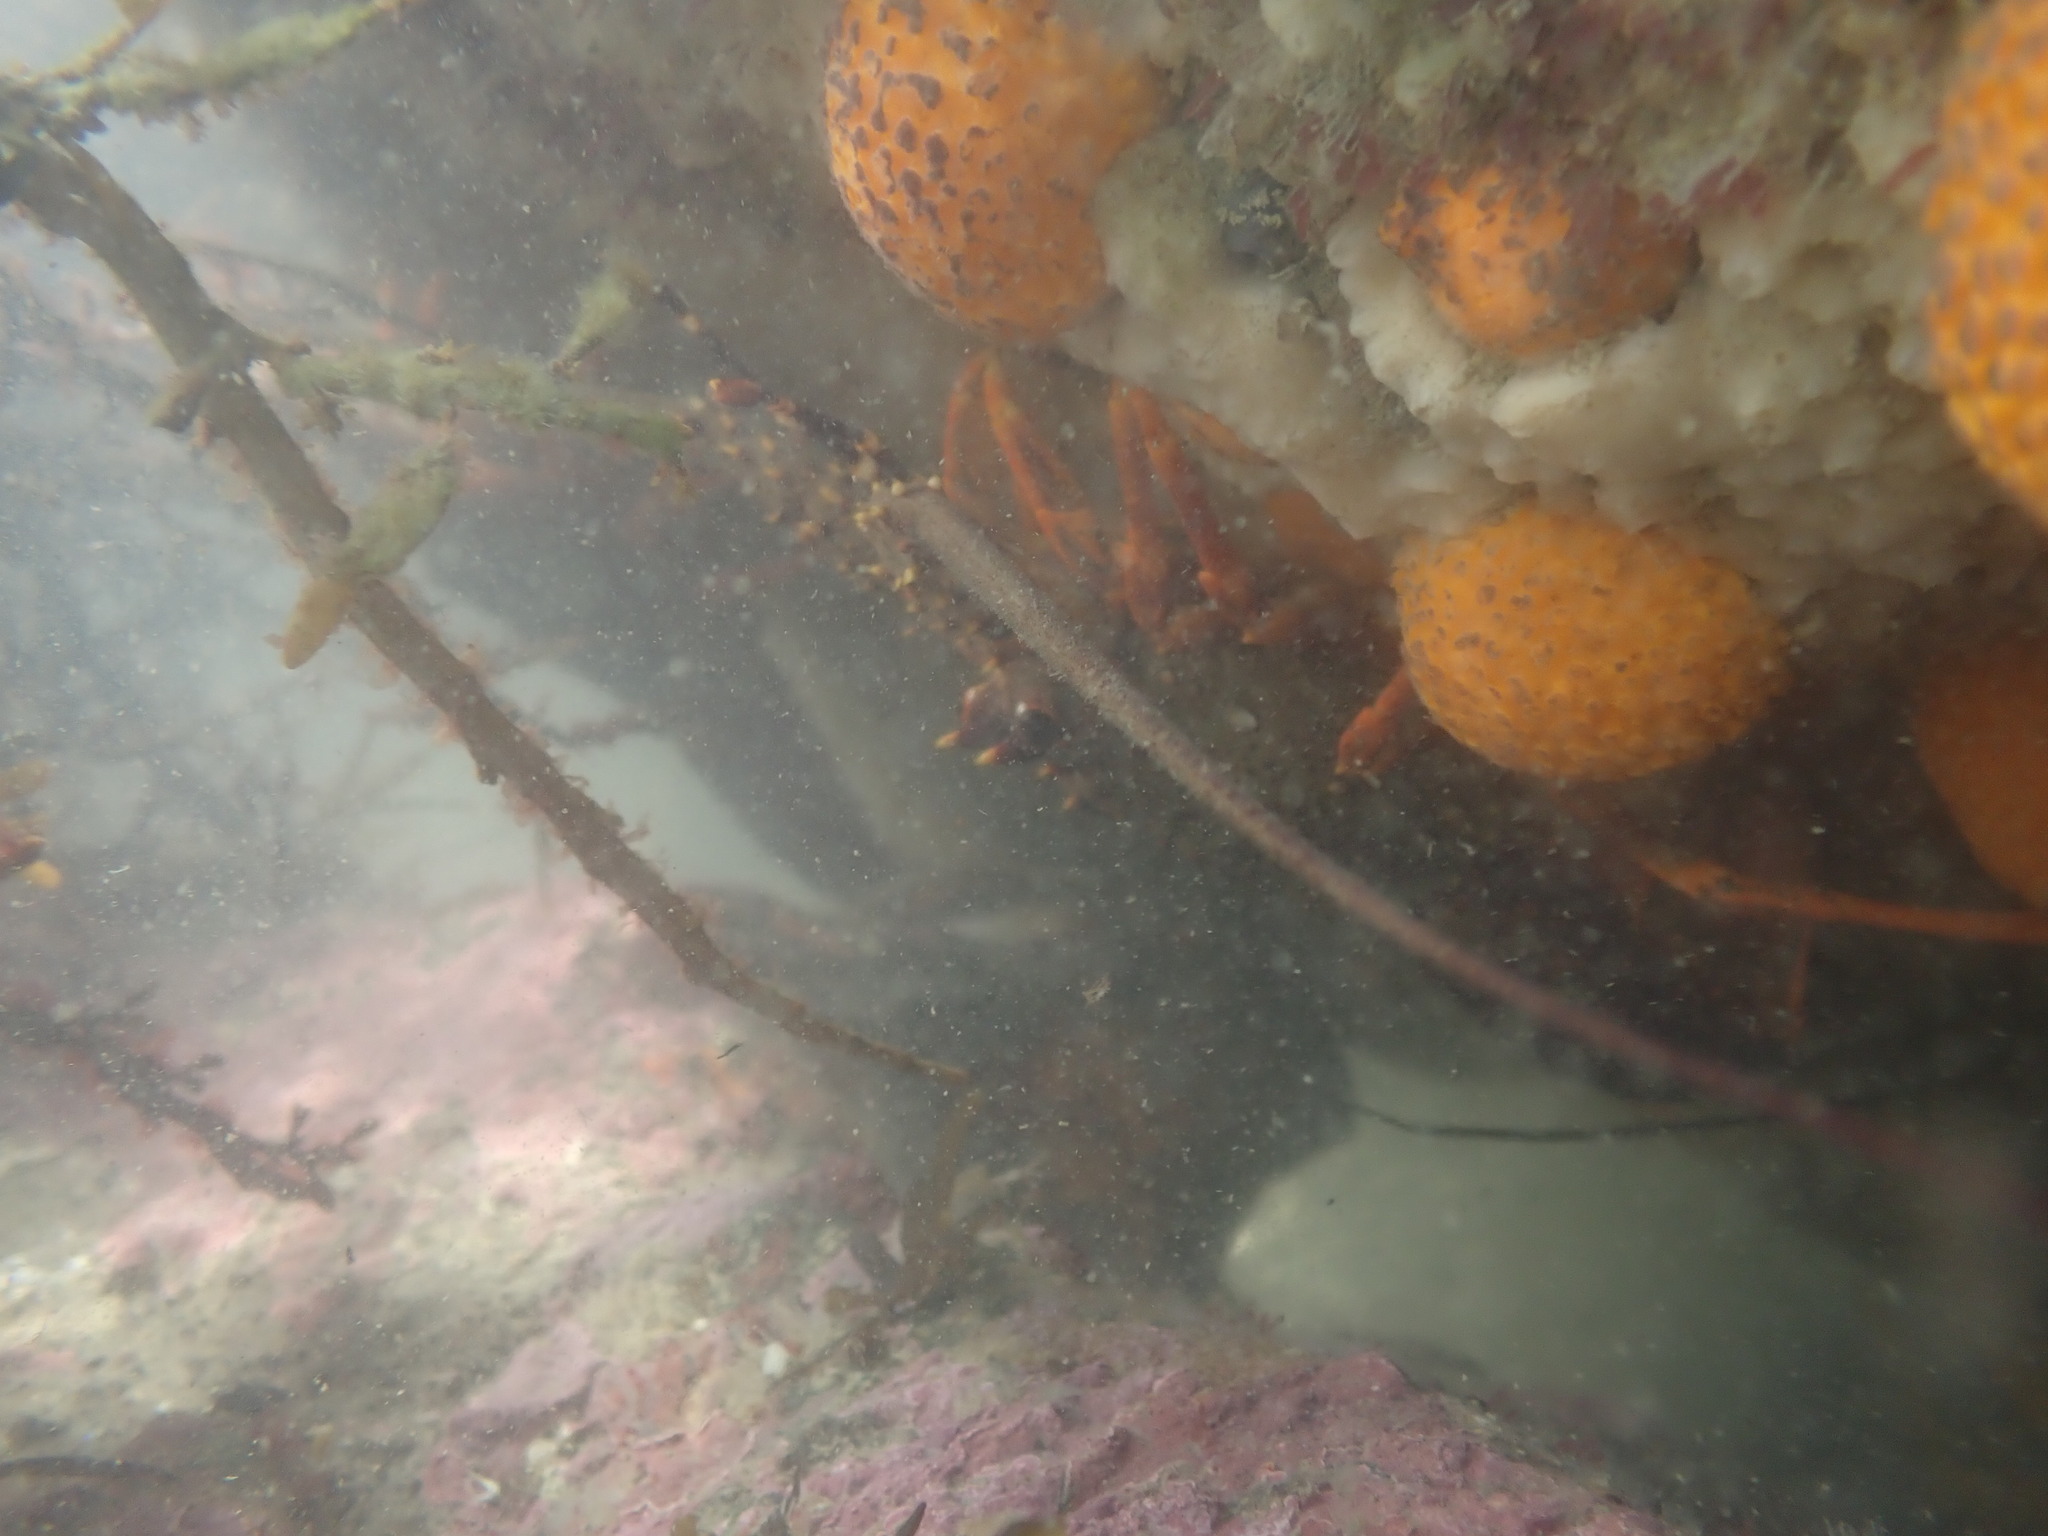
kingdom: Animalia
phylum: Arthropoda
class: Malacostraca
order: Decapoda
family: Palinuridae
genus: Jasus
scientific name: Jasus edwardsii
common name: Red rock lobster
